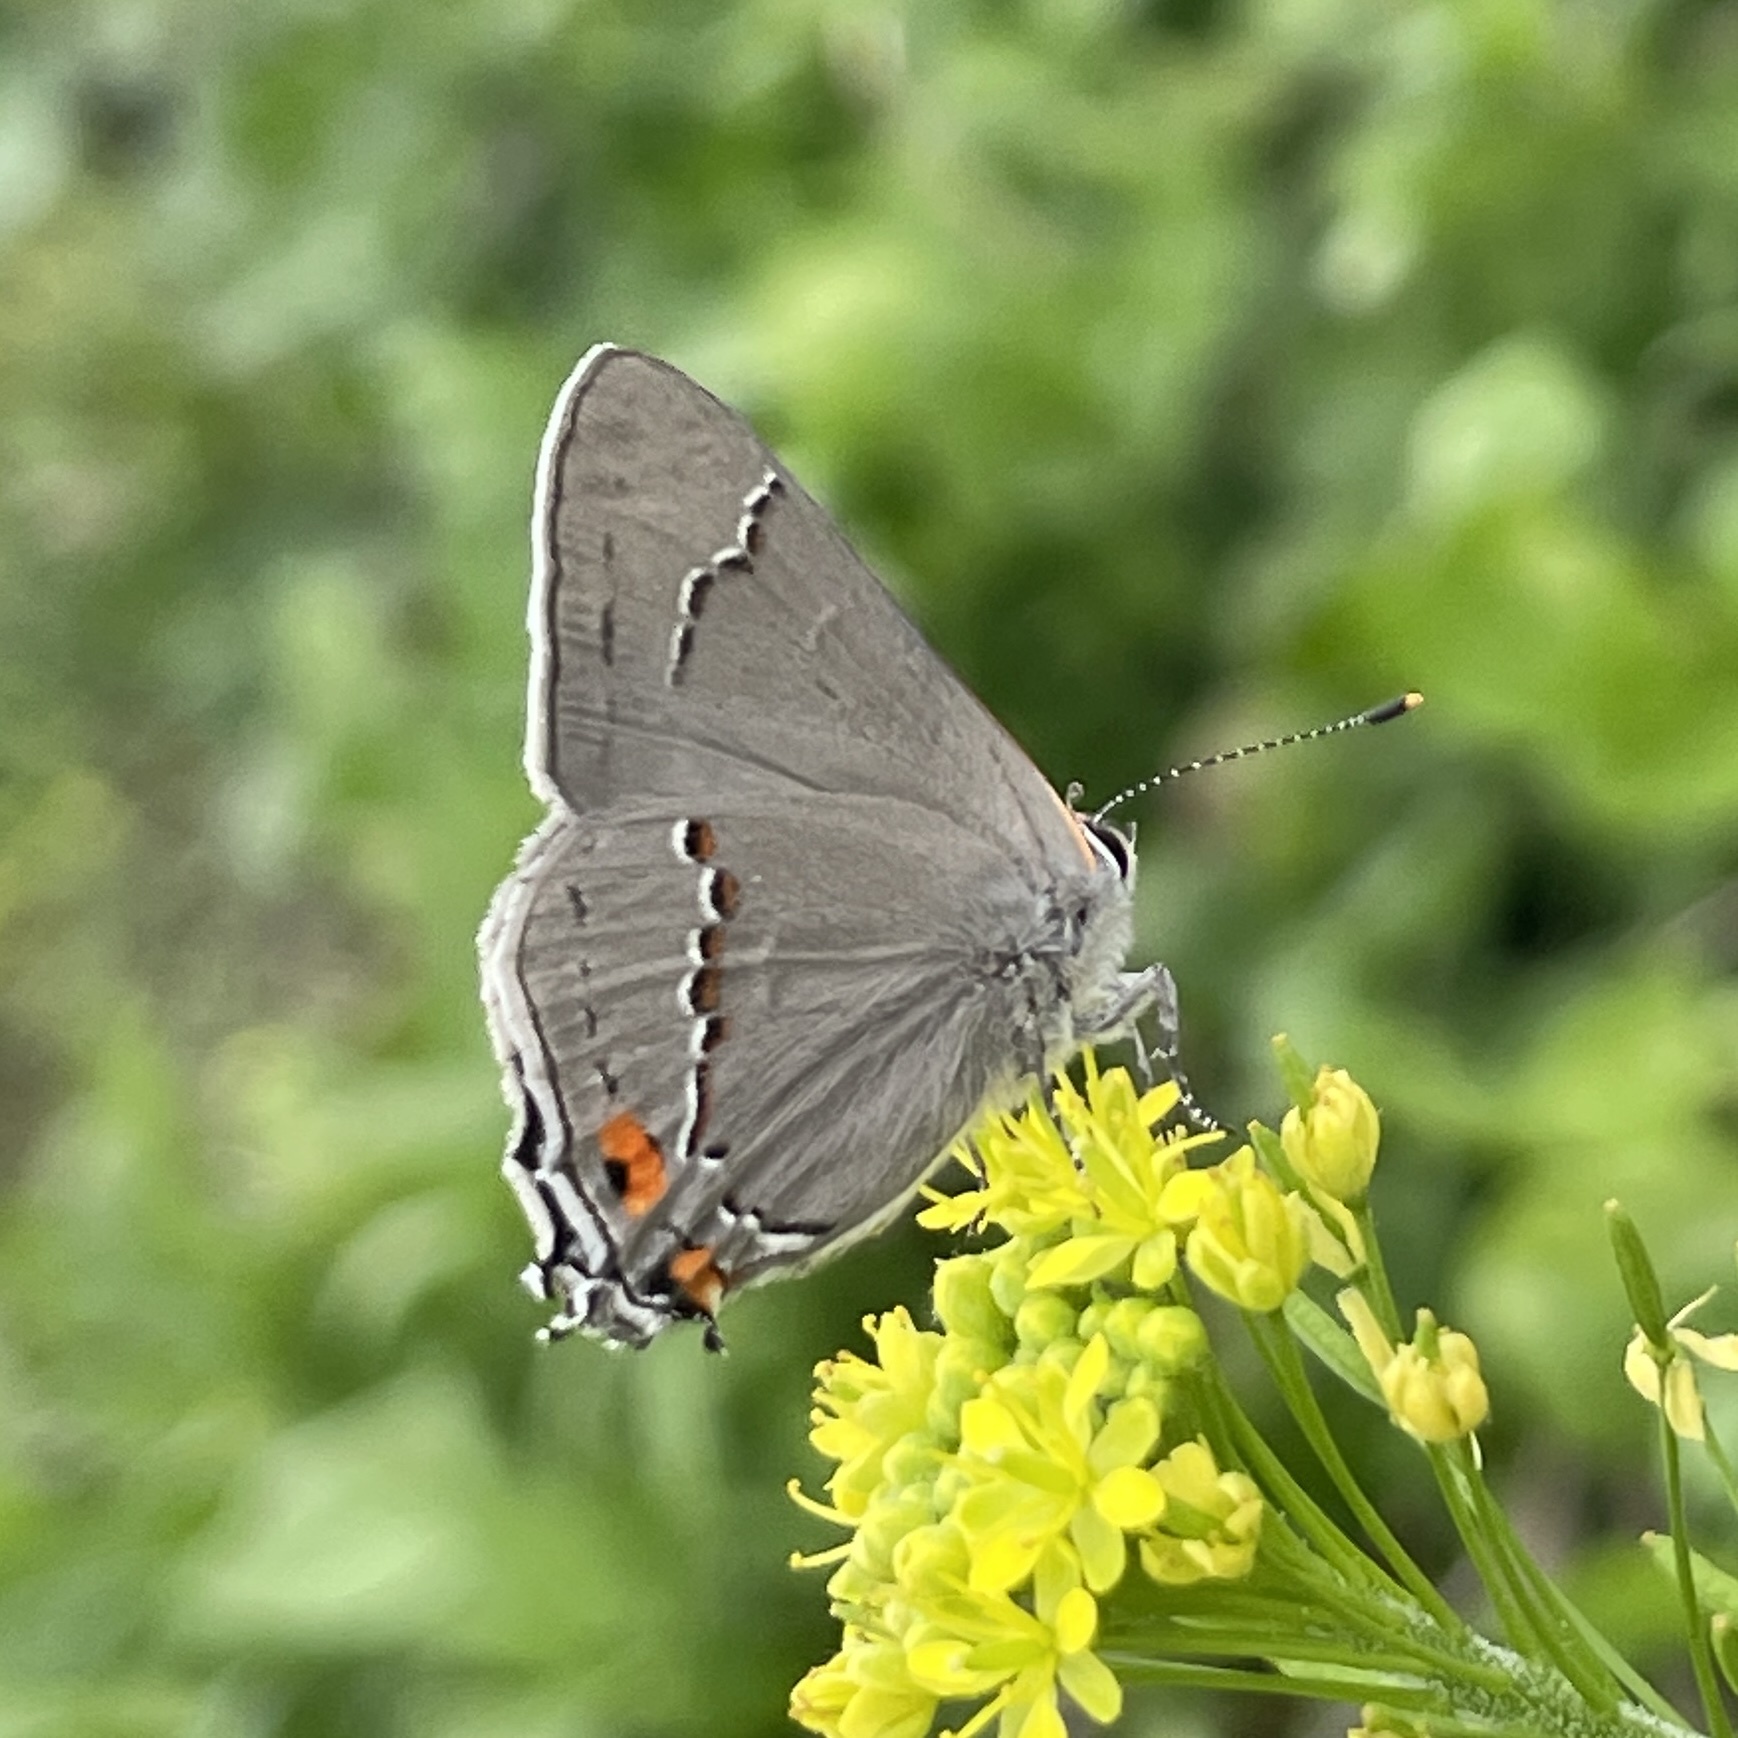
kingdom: Animalia
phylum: Arthropoda
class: Insecta
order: Lepidoptera
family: Lycaenidae
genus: Strymon
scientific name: Strymon melinus
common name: Gray hairstreak
